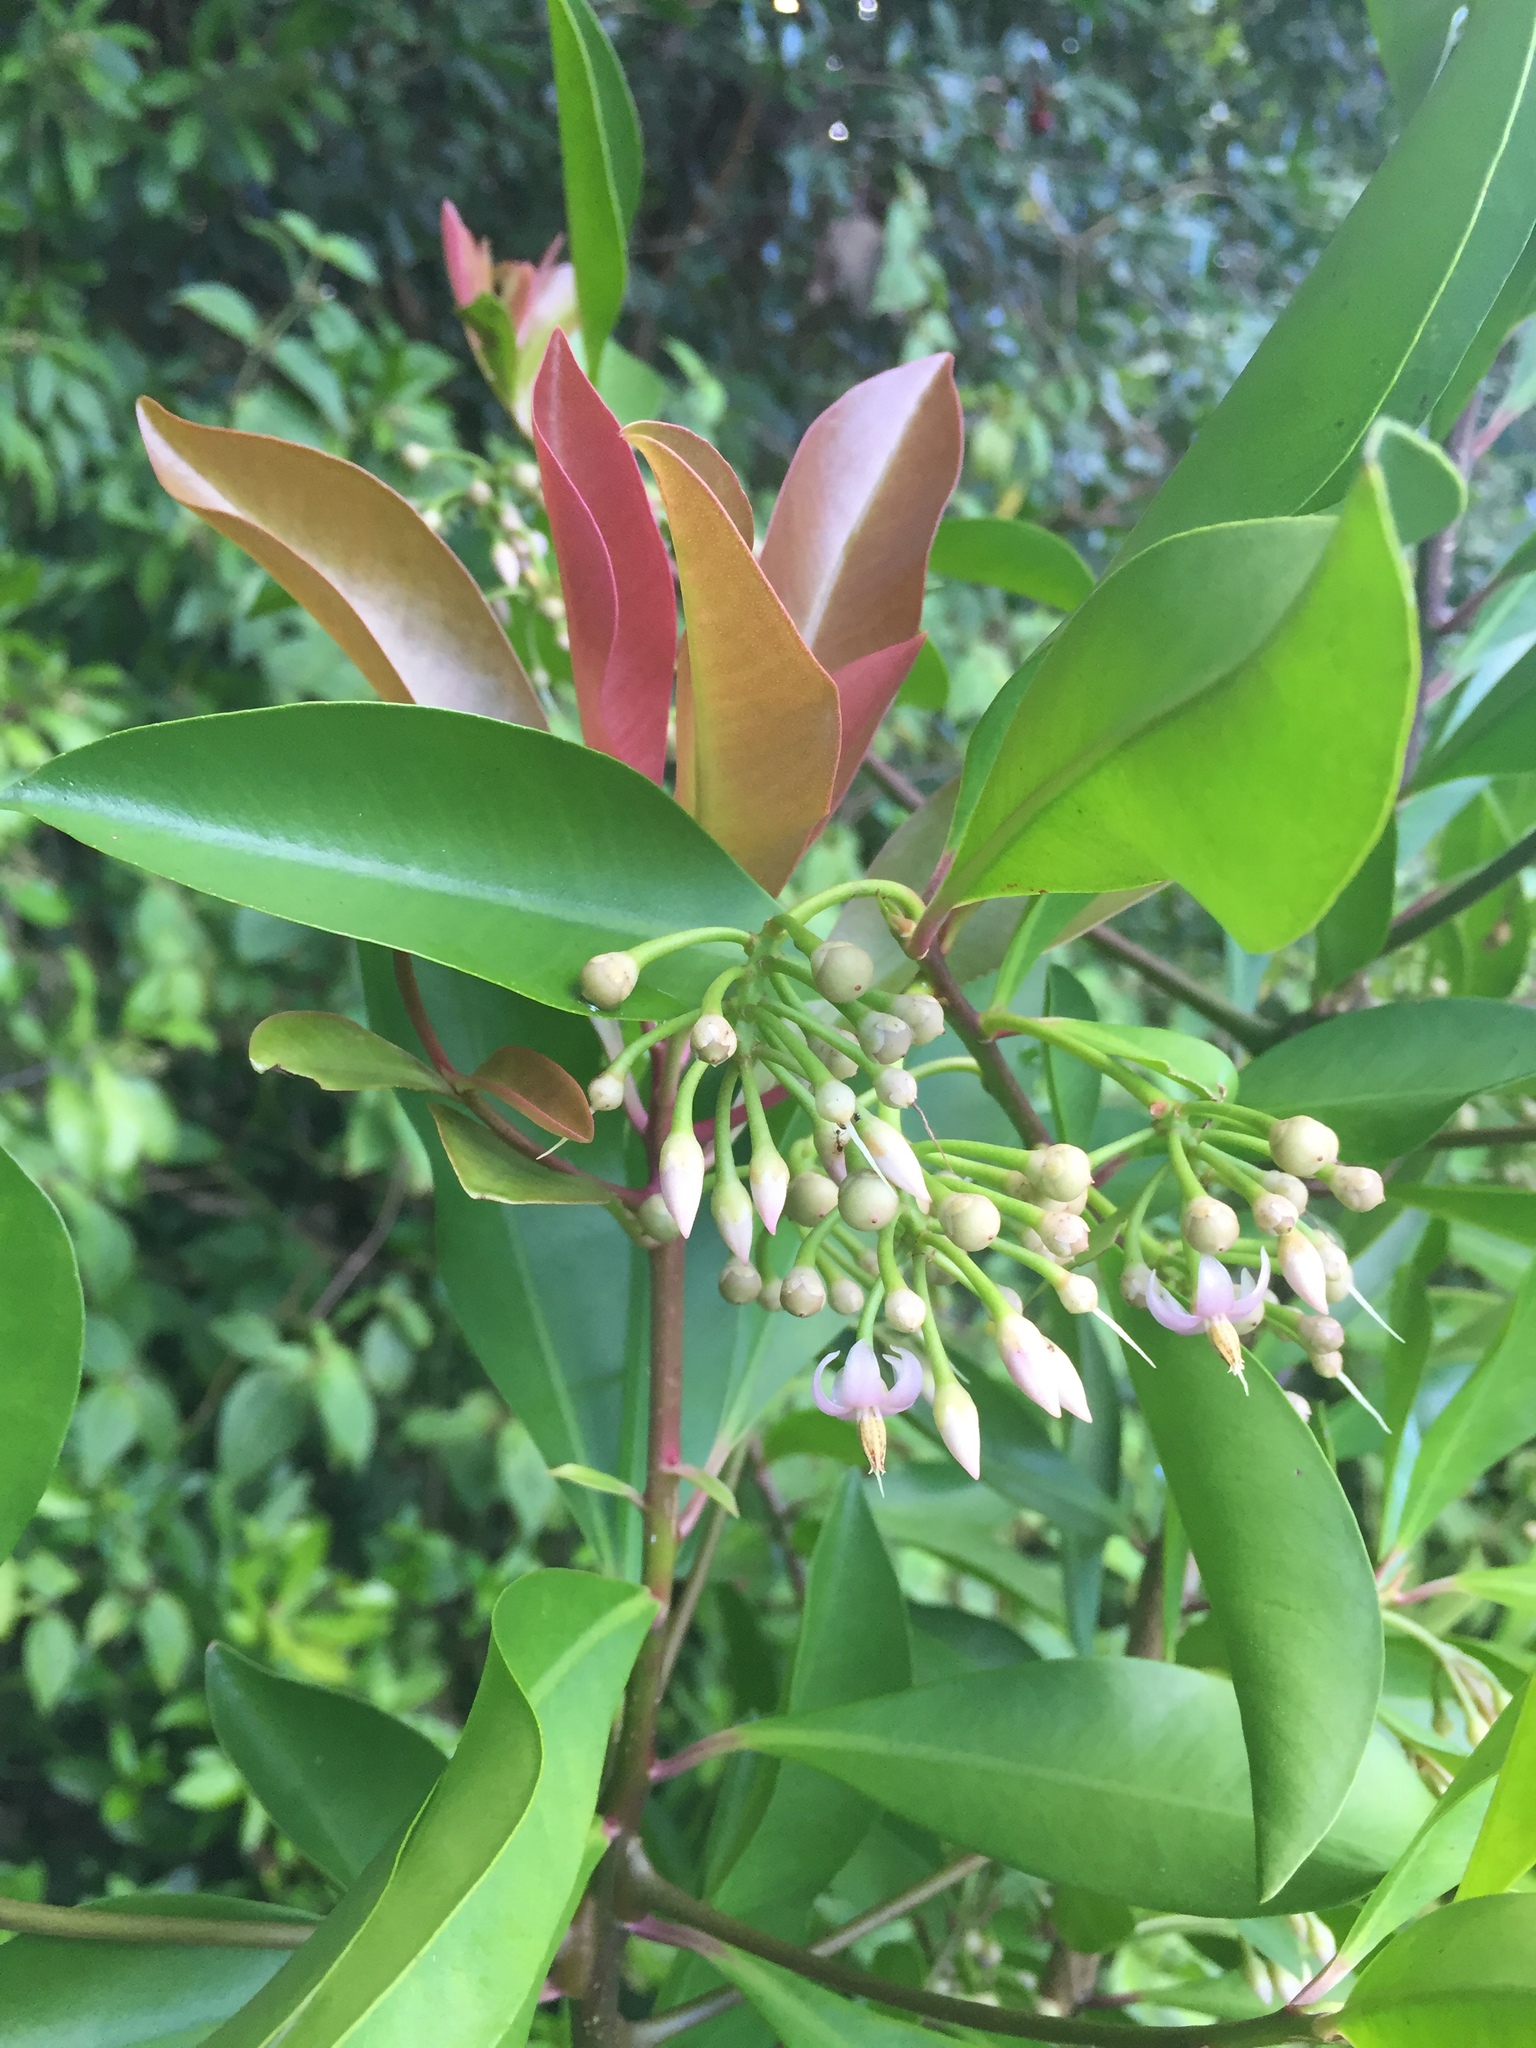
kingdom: Plantae
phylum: Tracheophyta
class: Magnoliopsida
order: Ericales
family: Primulaceae
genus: Ardisia
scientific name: Ardisia elliptica
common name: Shoebutton
